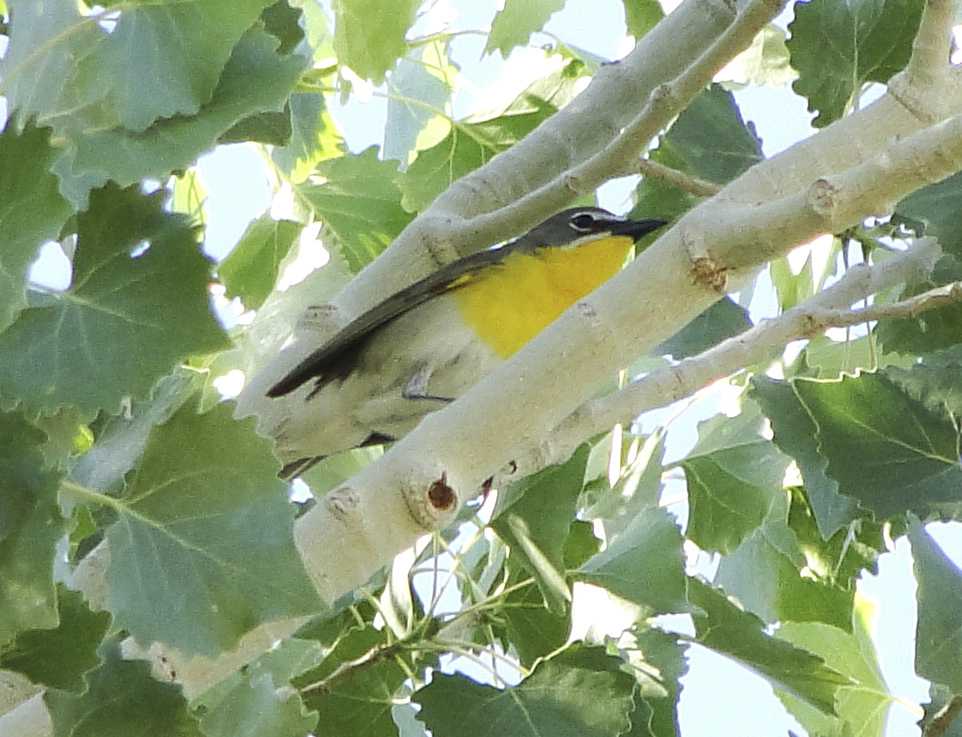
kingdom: Animalia
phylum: Chordata
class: Aves
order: Passeriformes
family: Parulidae
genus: Icteria
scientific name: Icteria virens
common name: Yellow-breasted chat
